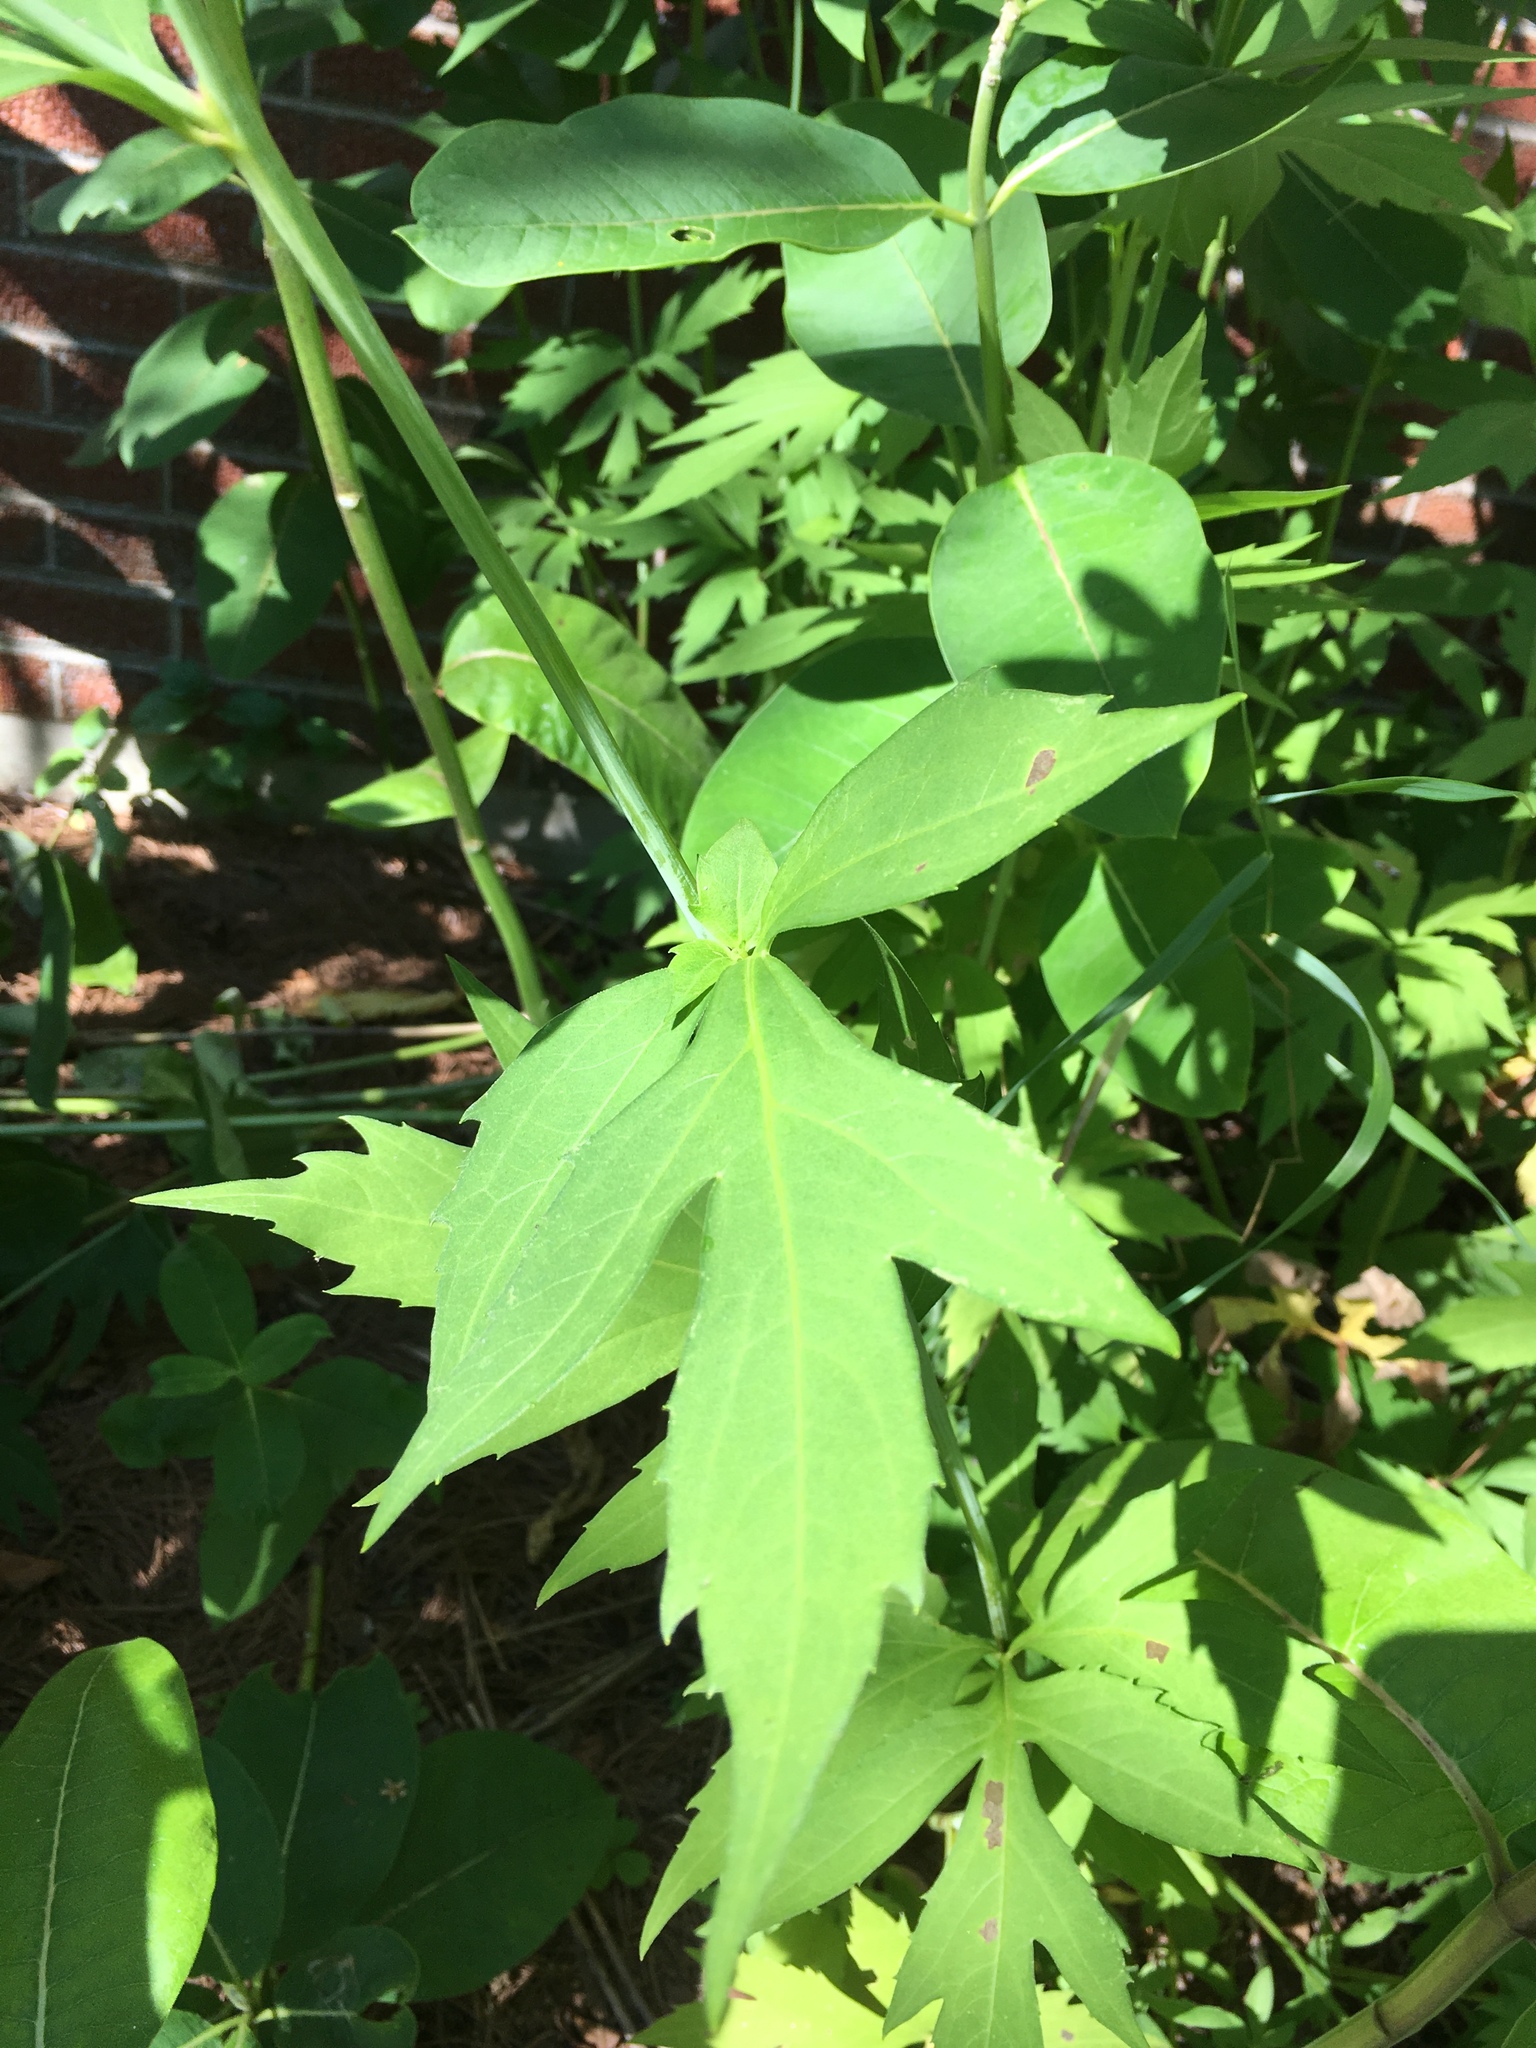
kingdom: Plantae
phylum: Tracheophyta
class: Magnoliopsida
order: Asterales
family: Asteraceae
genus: Rudbeckia
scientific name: Rudbeckia laciniata
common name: Coneflower
